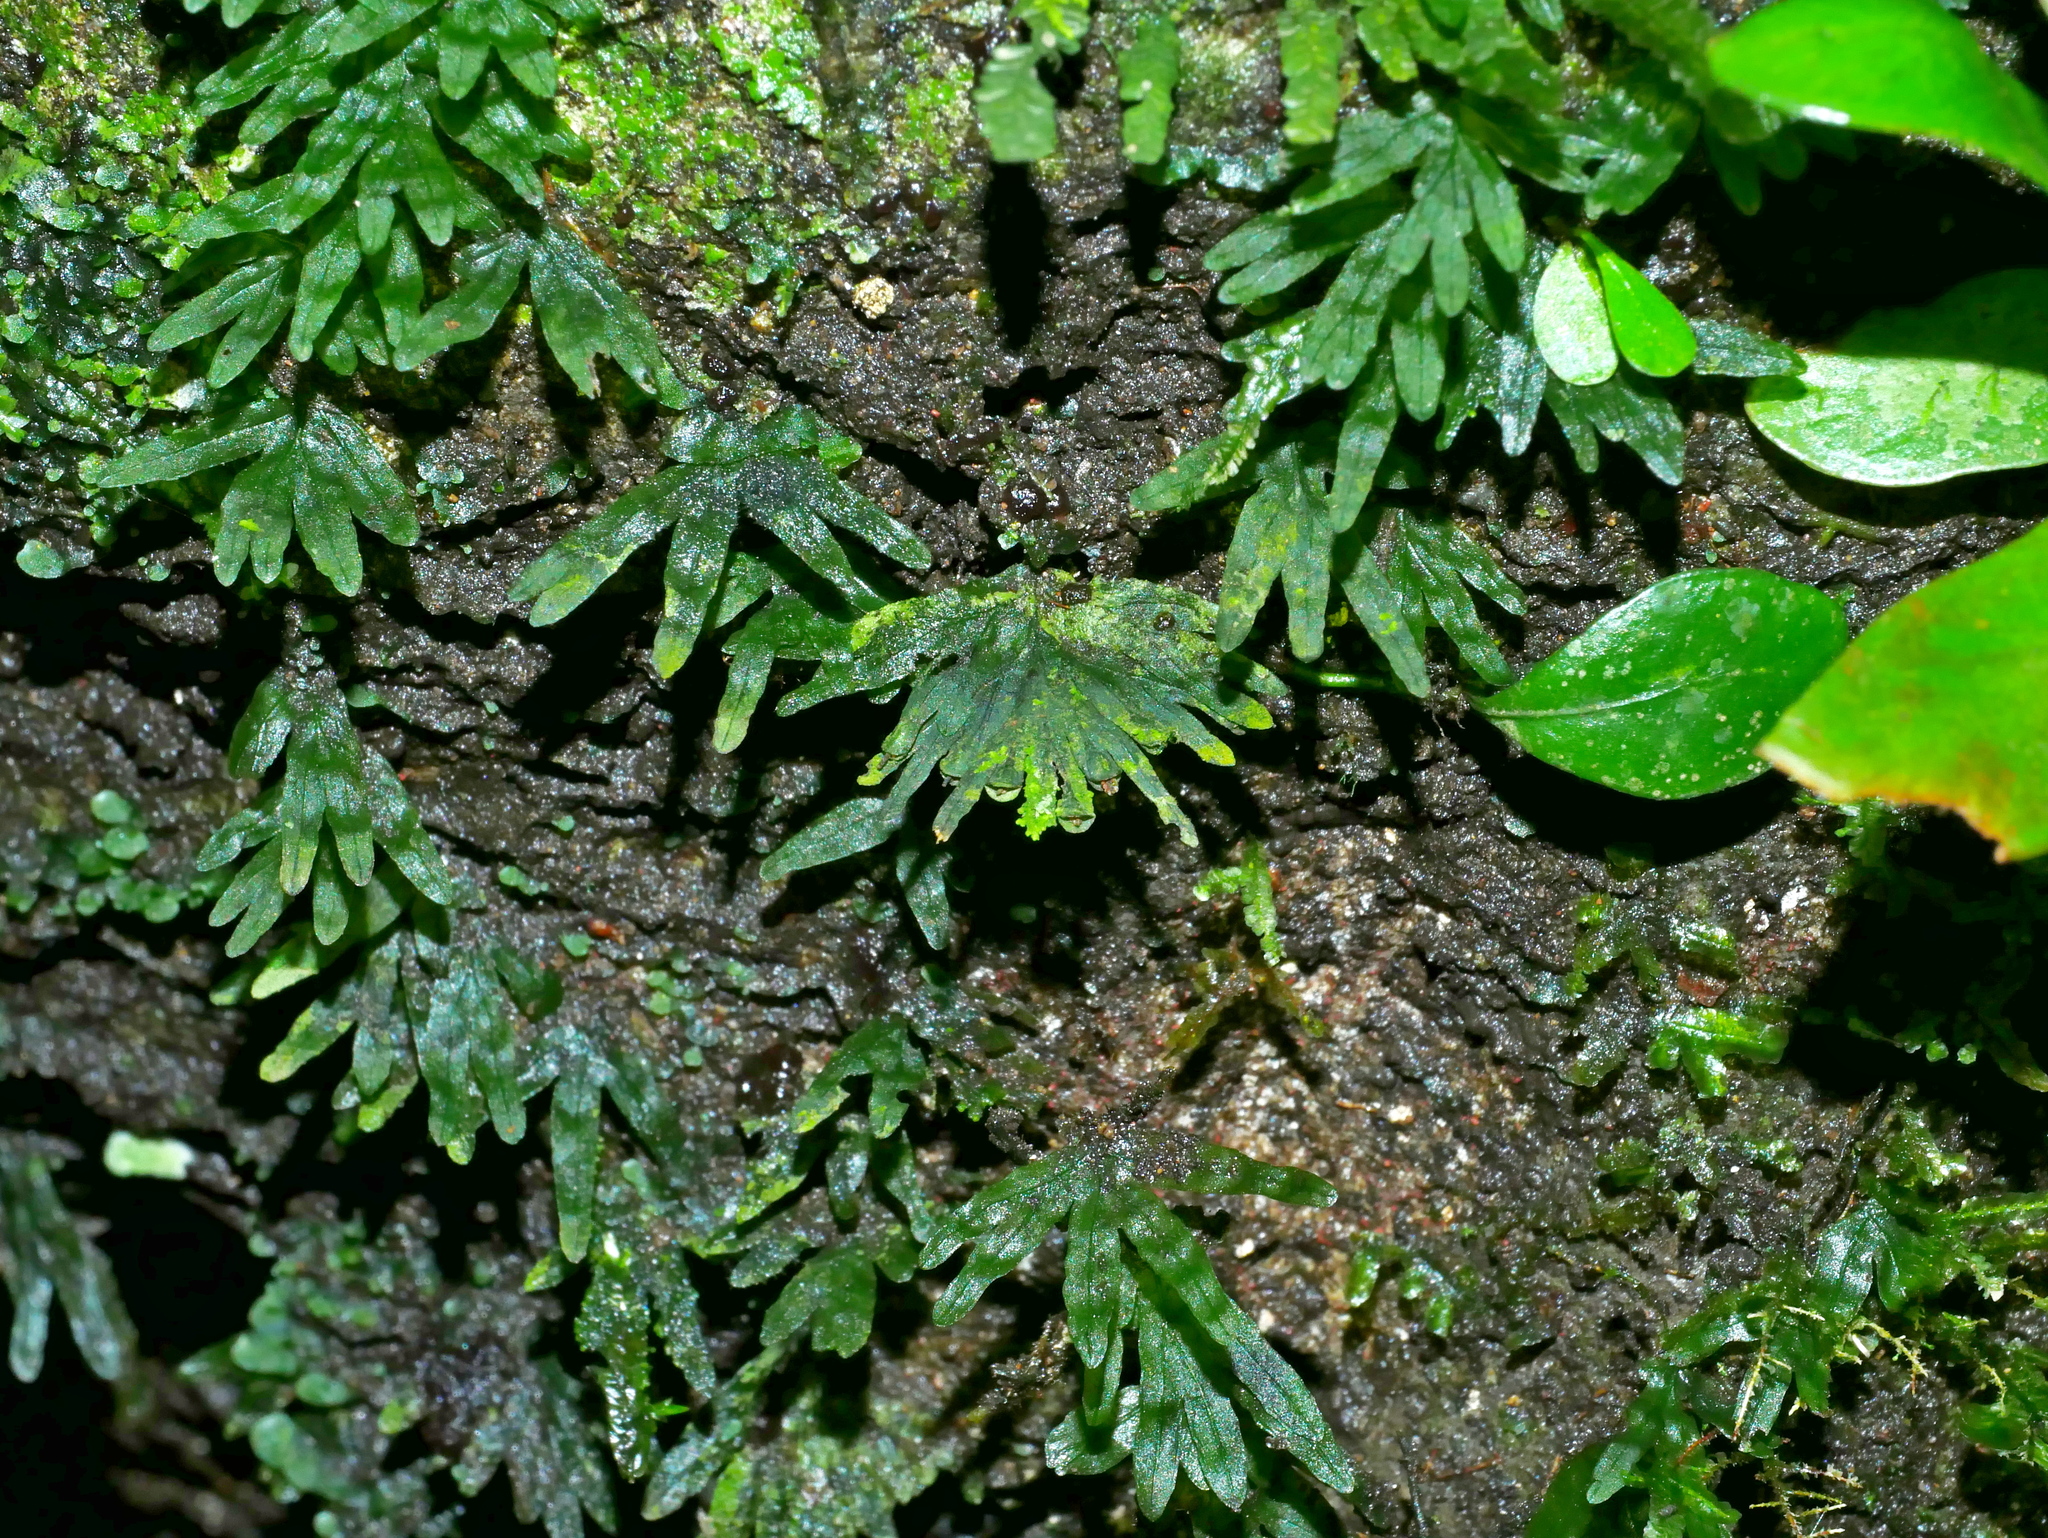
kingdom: Plantae
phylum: Tracheophyta
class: Polypodiopsida
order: Hymenophyllales
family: Hymenophyllaceae
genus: Crepidomanes
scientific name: Crepidomanes latemarginale
